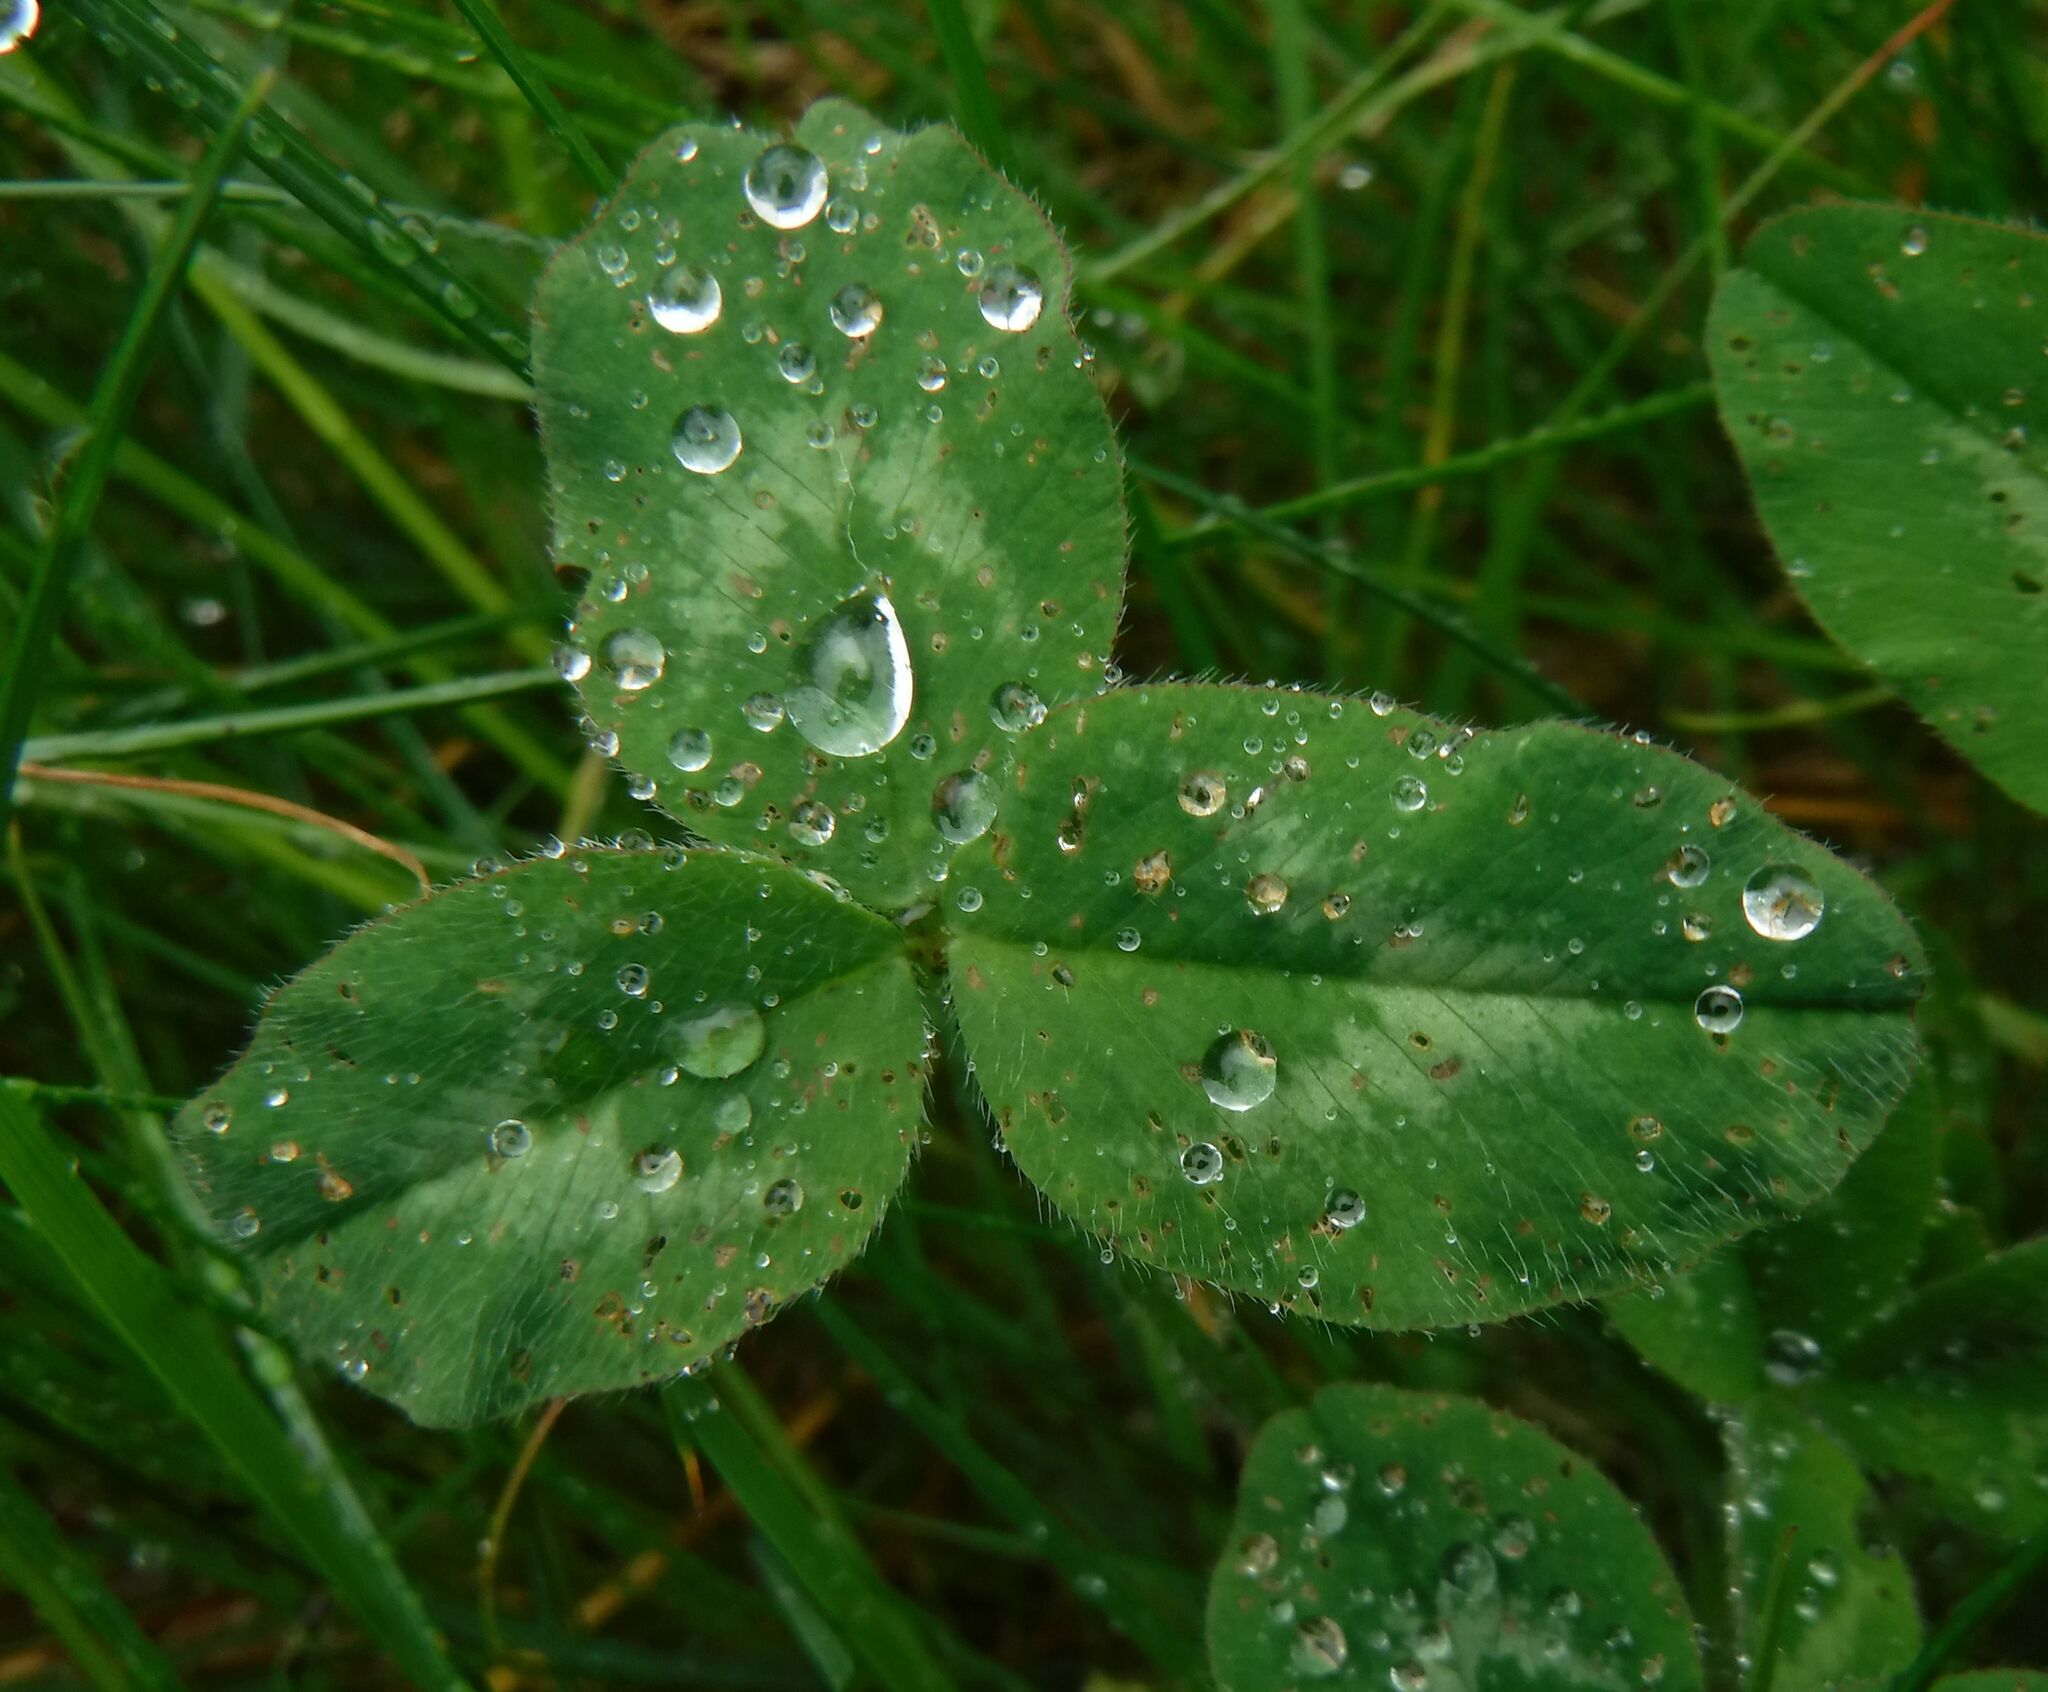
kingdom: Plantae
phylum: Tracheophyta
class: Magnoliopsida
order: Fabales
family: Fabaceae
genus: Trifolium
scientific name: Trifolium pratense
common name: Red clover
